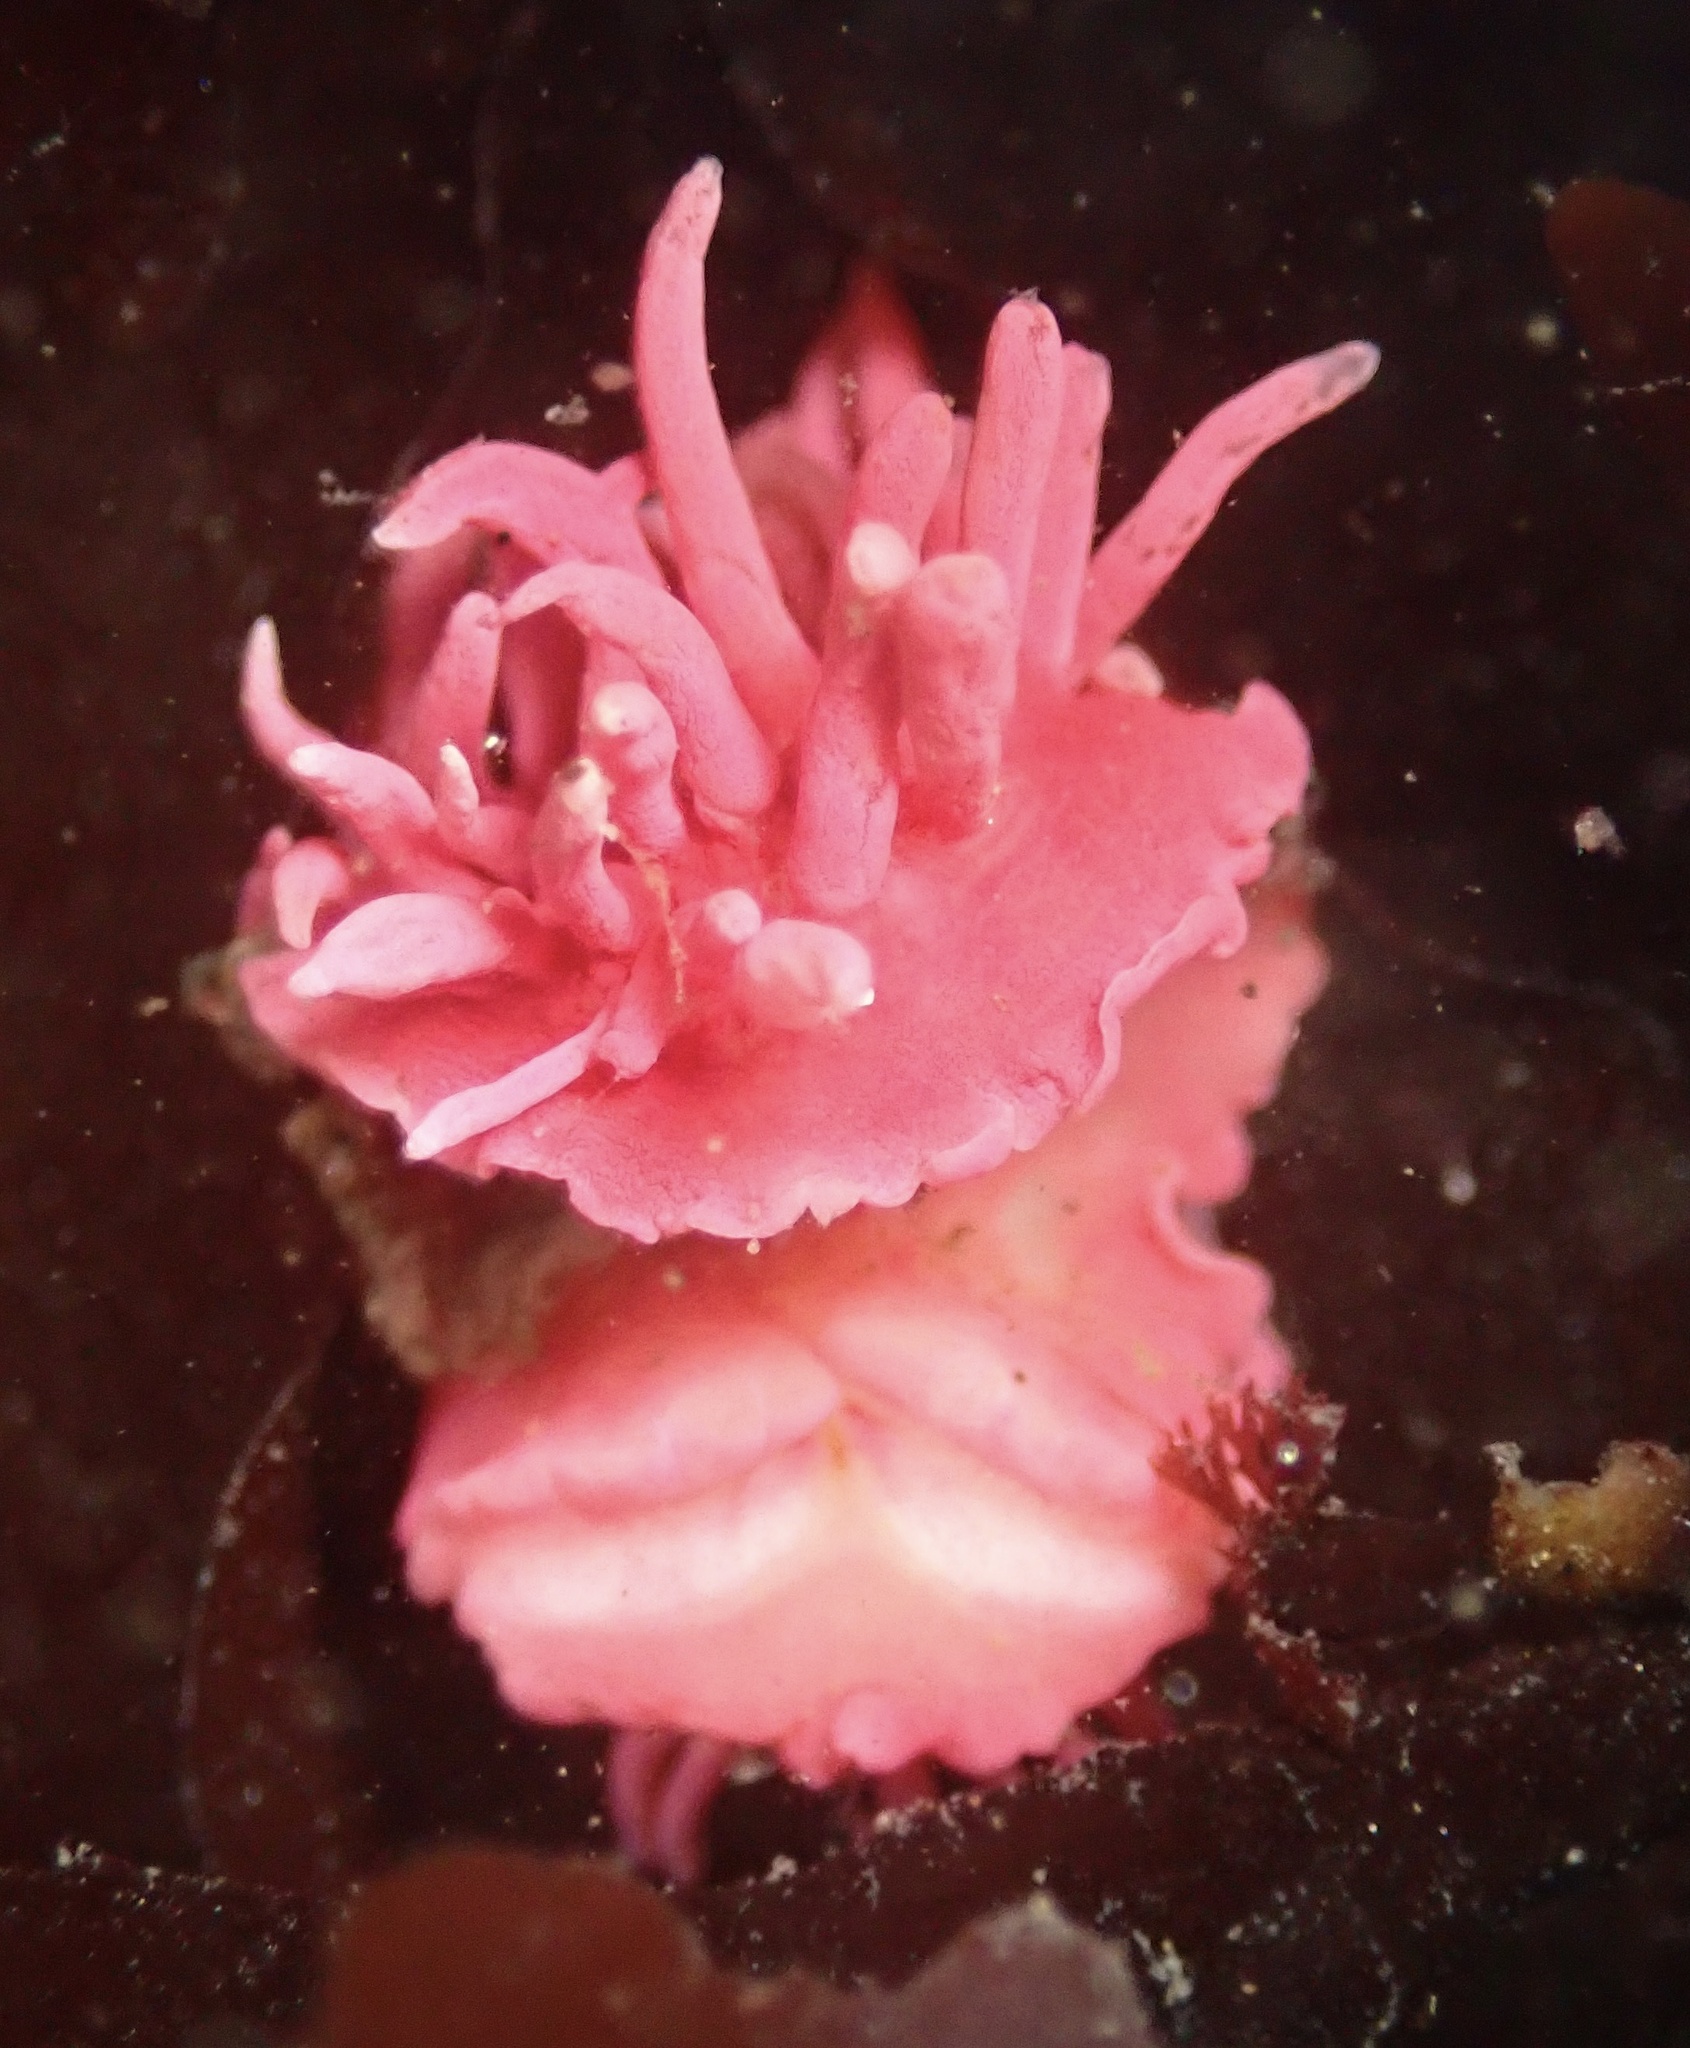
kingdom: Animalia
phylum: Mollusca
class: Gastropoda
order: Nudibranchia
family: Goniodorididae
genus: Okenia
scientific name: Okenia
